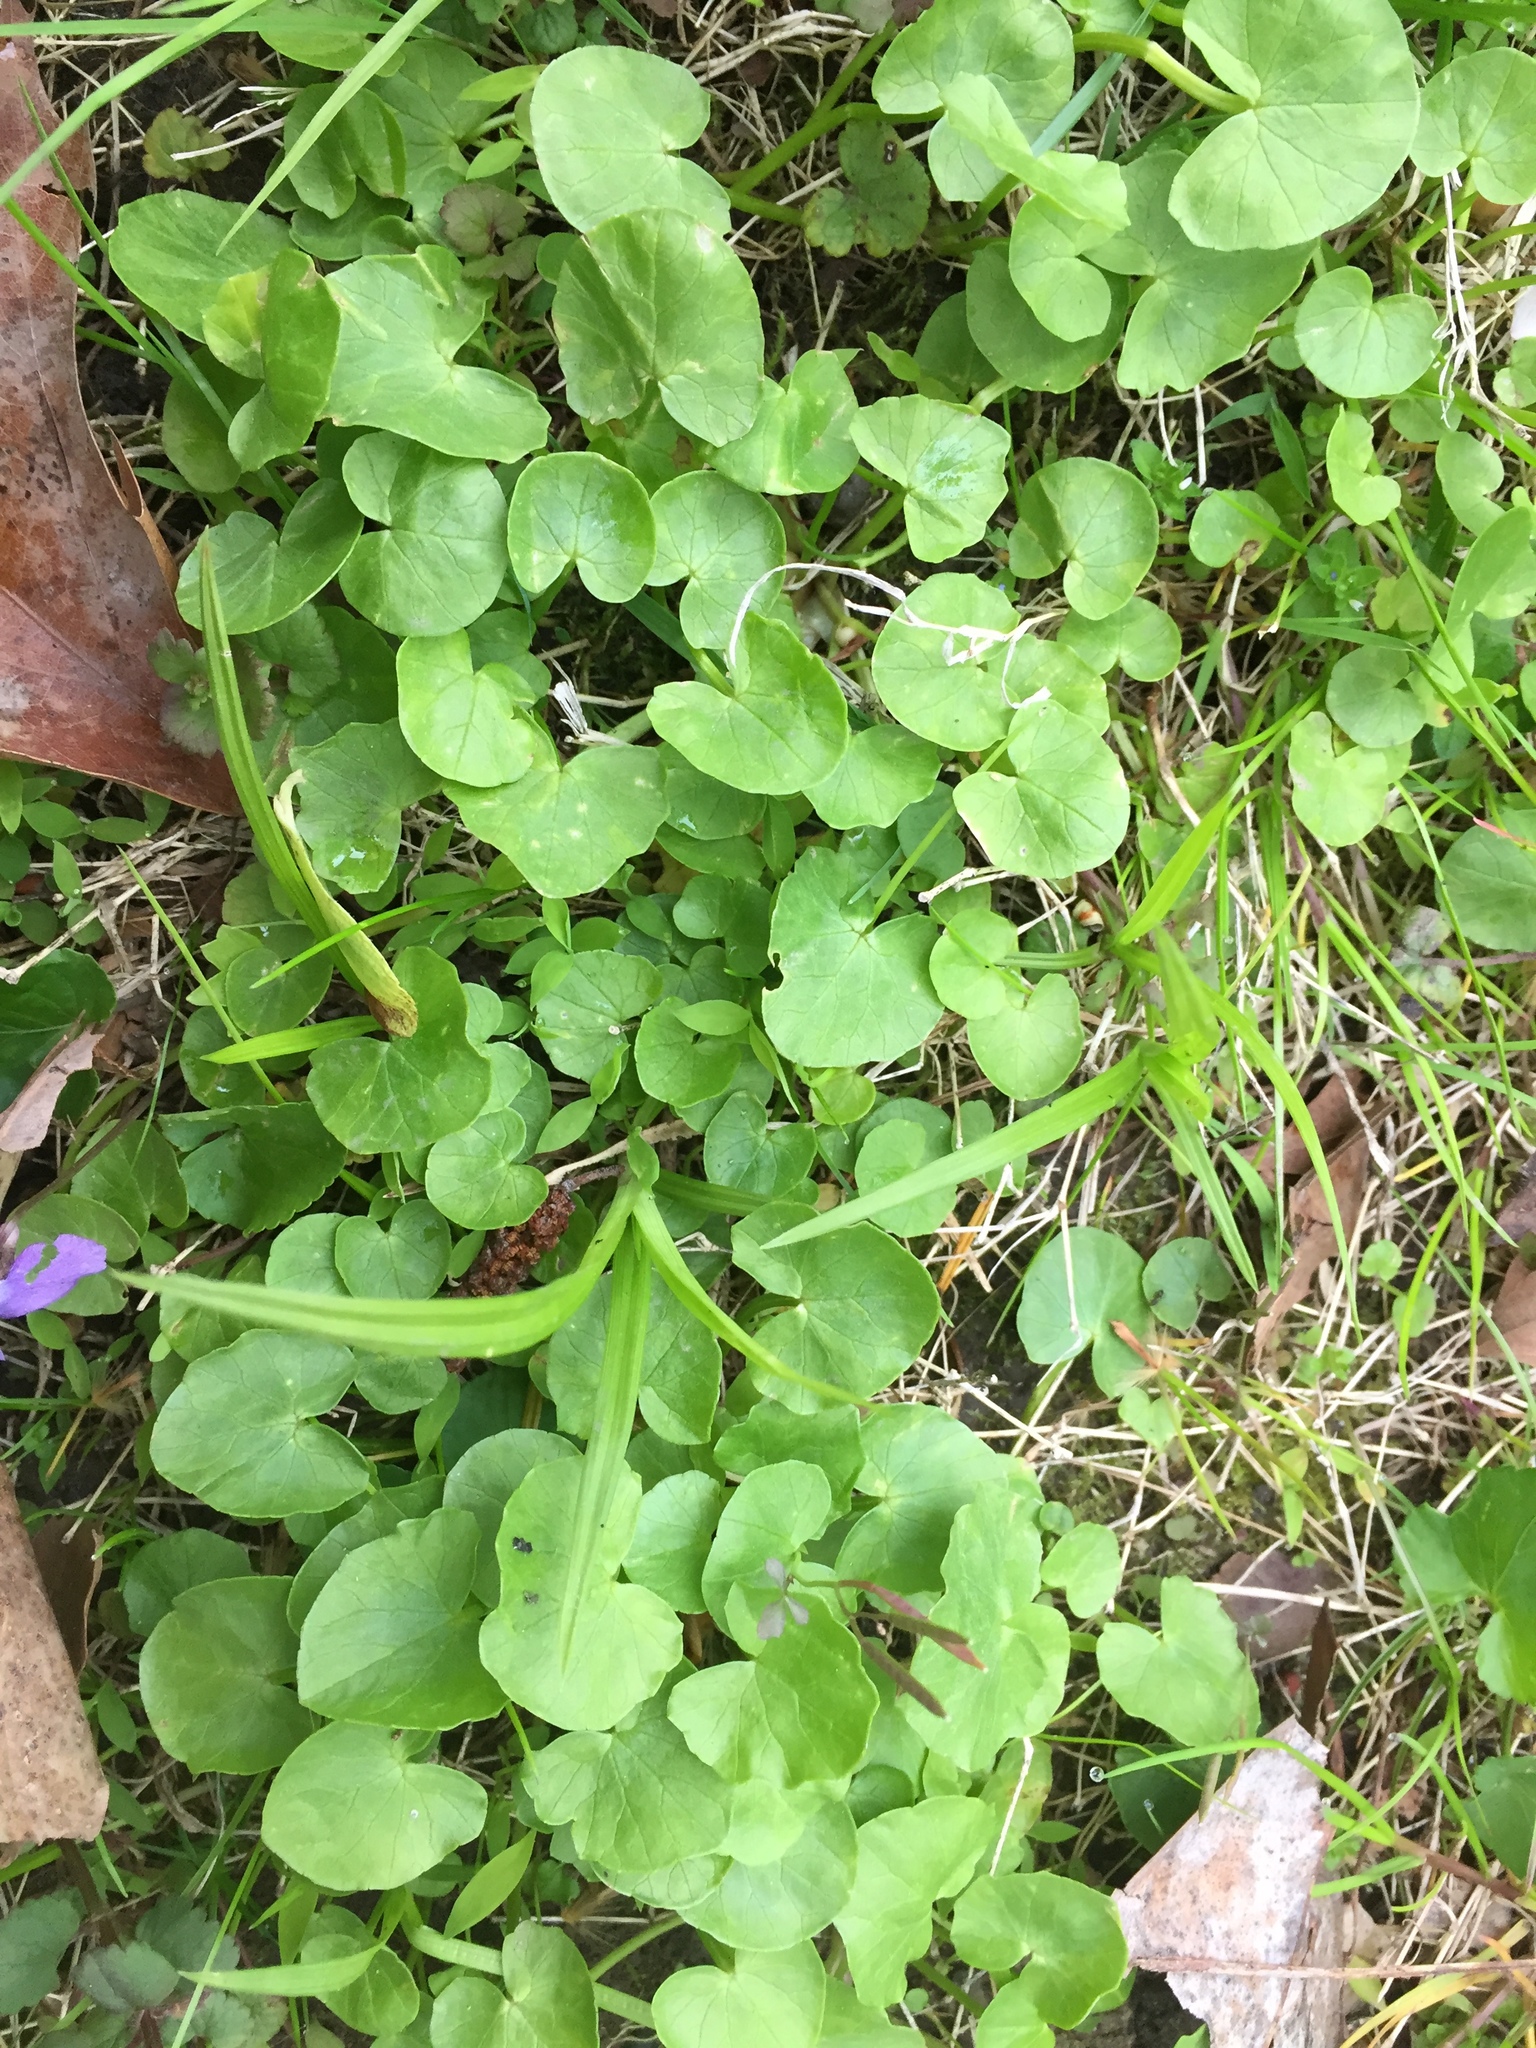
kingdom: Plantae
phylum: Tracheophyta
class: Magnoliopsida
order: Ranunculales
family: Ranunculaceae
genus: Ficaria
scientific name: Ficaria verna
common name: Lesser celandine
